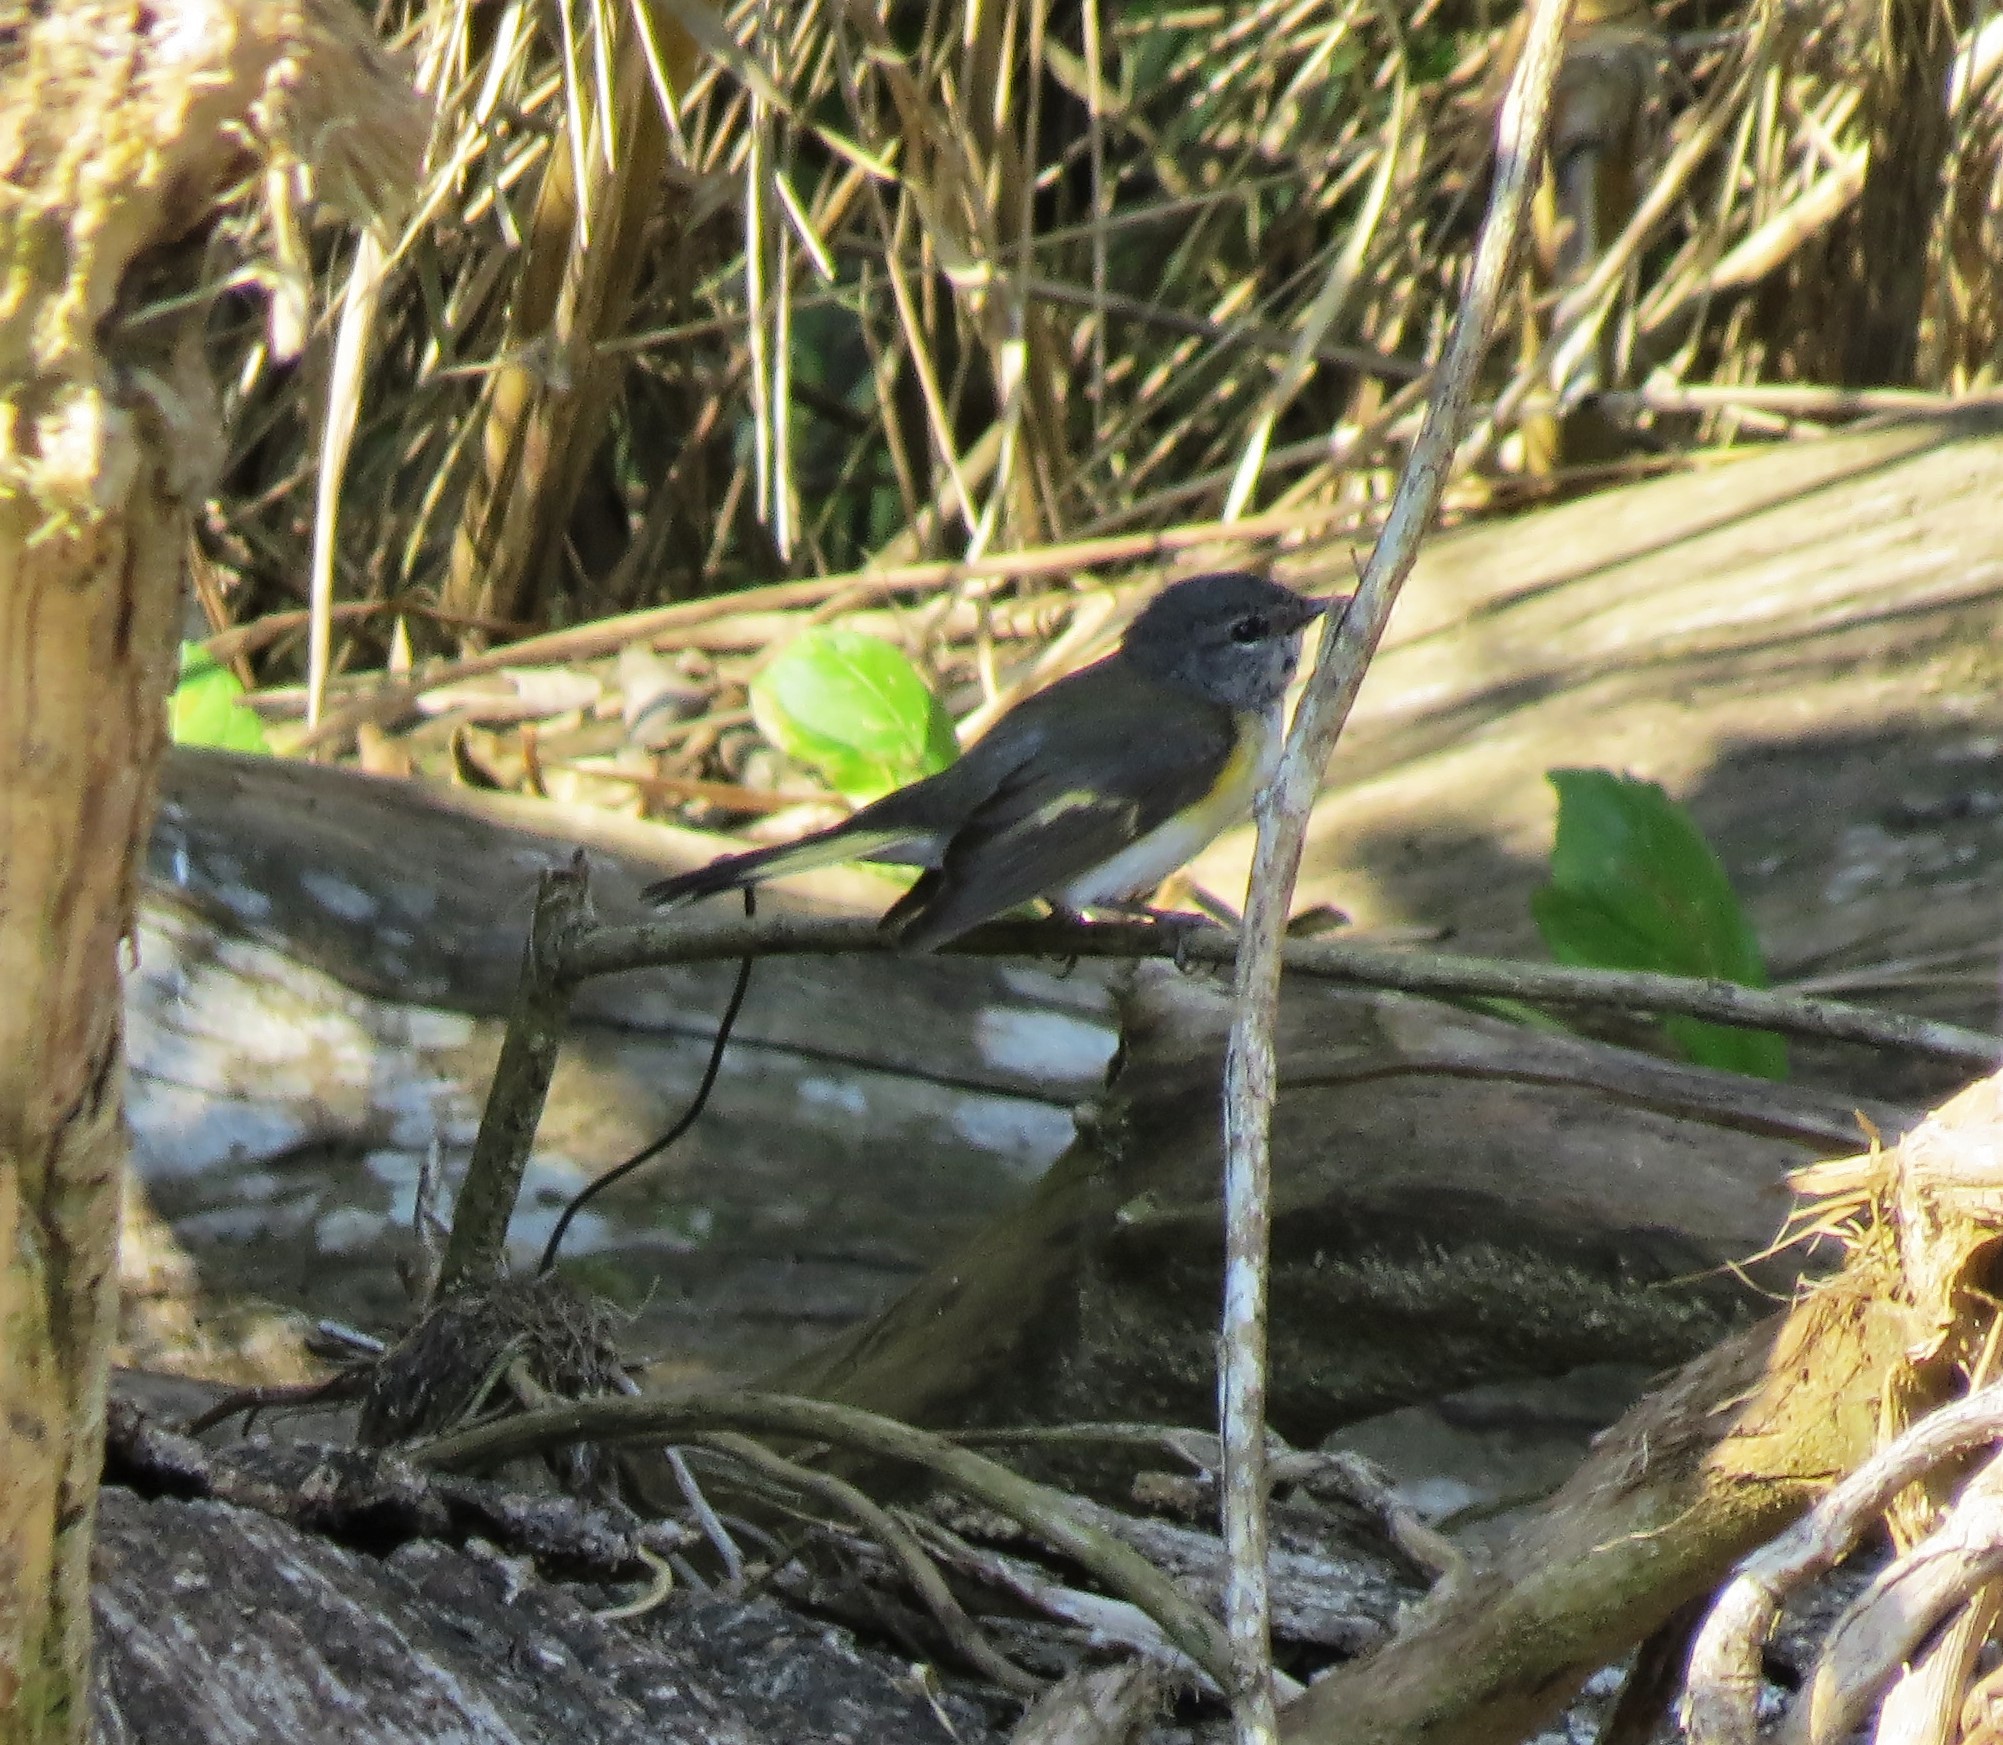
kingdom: Animalia
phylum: Chordata
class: Aves
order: Passeriformes
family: Parulidae
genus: Setophaga
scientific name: Setophaga ruticilla
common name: American redstart
